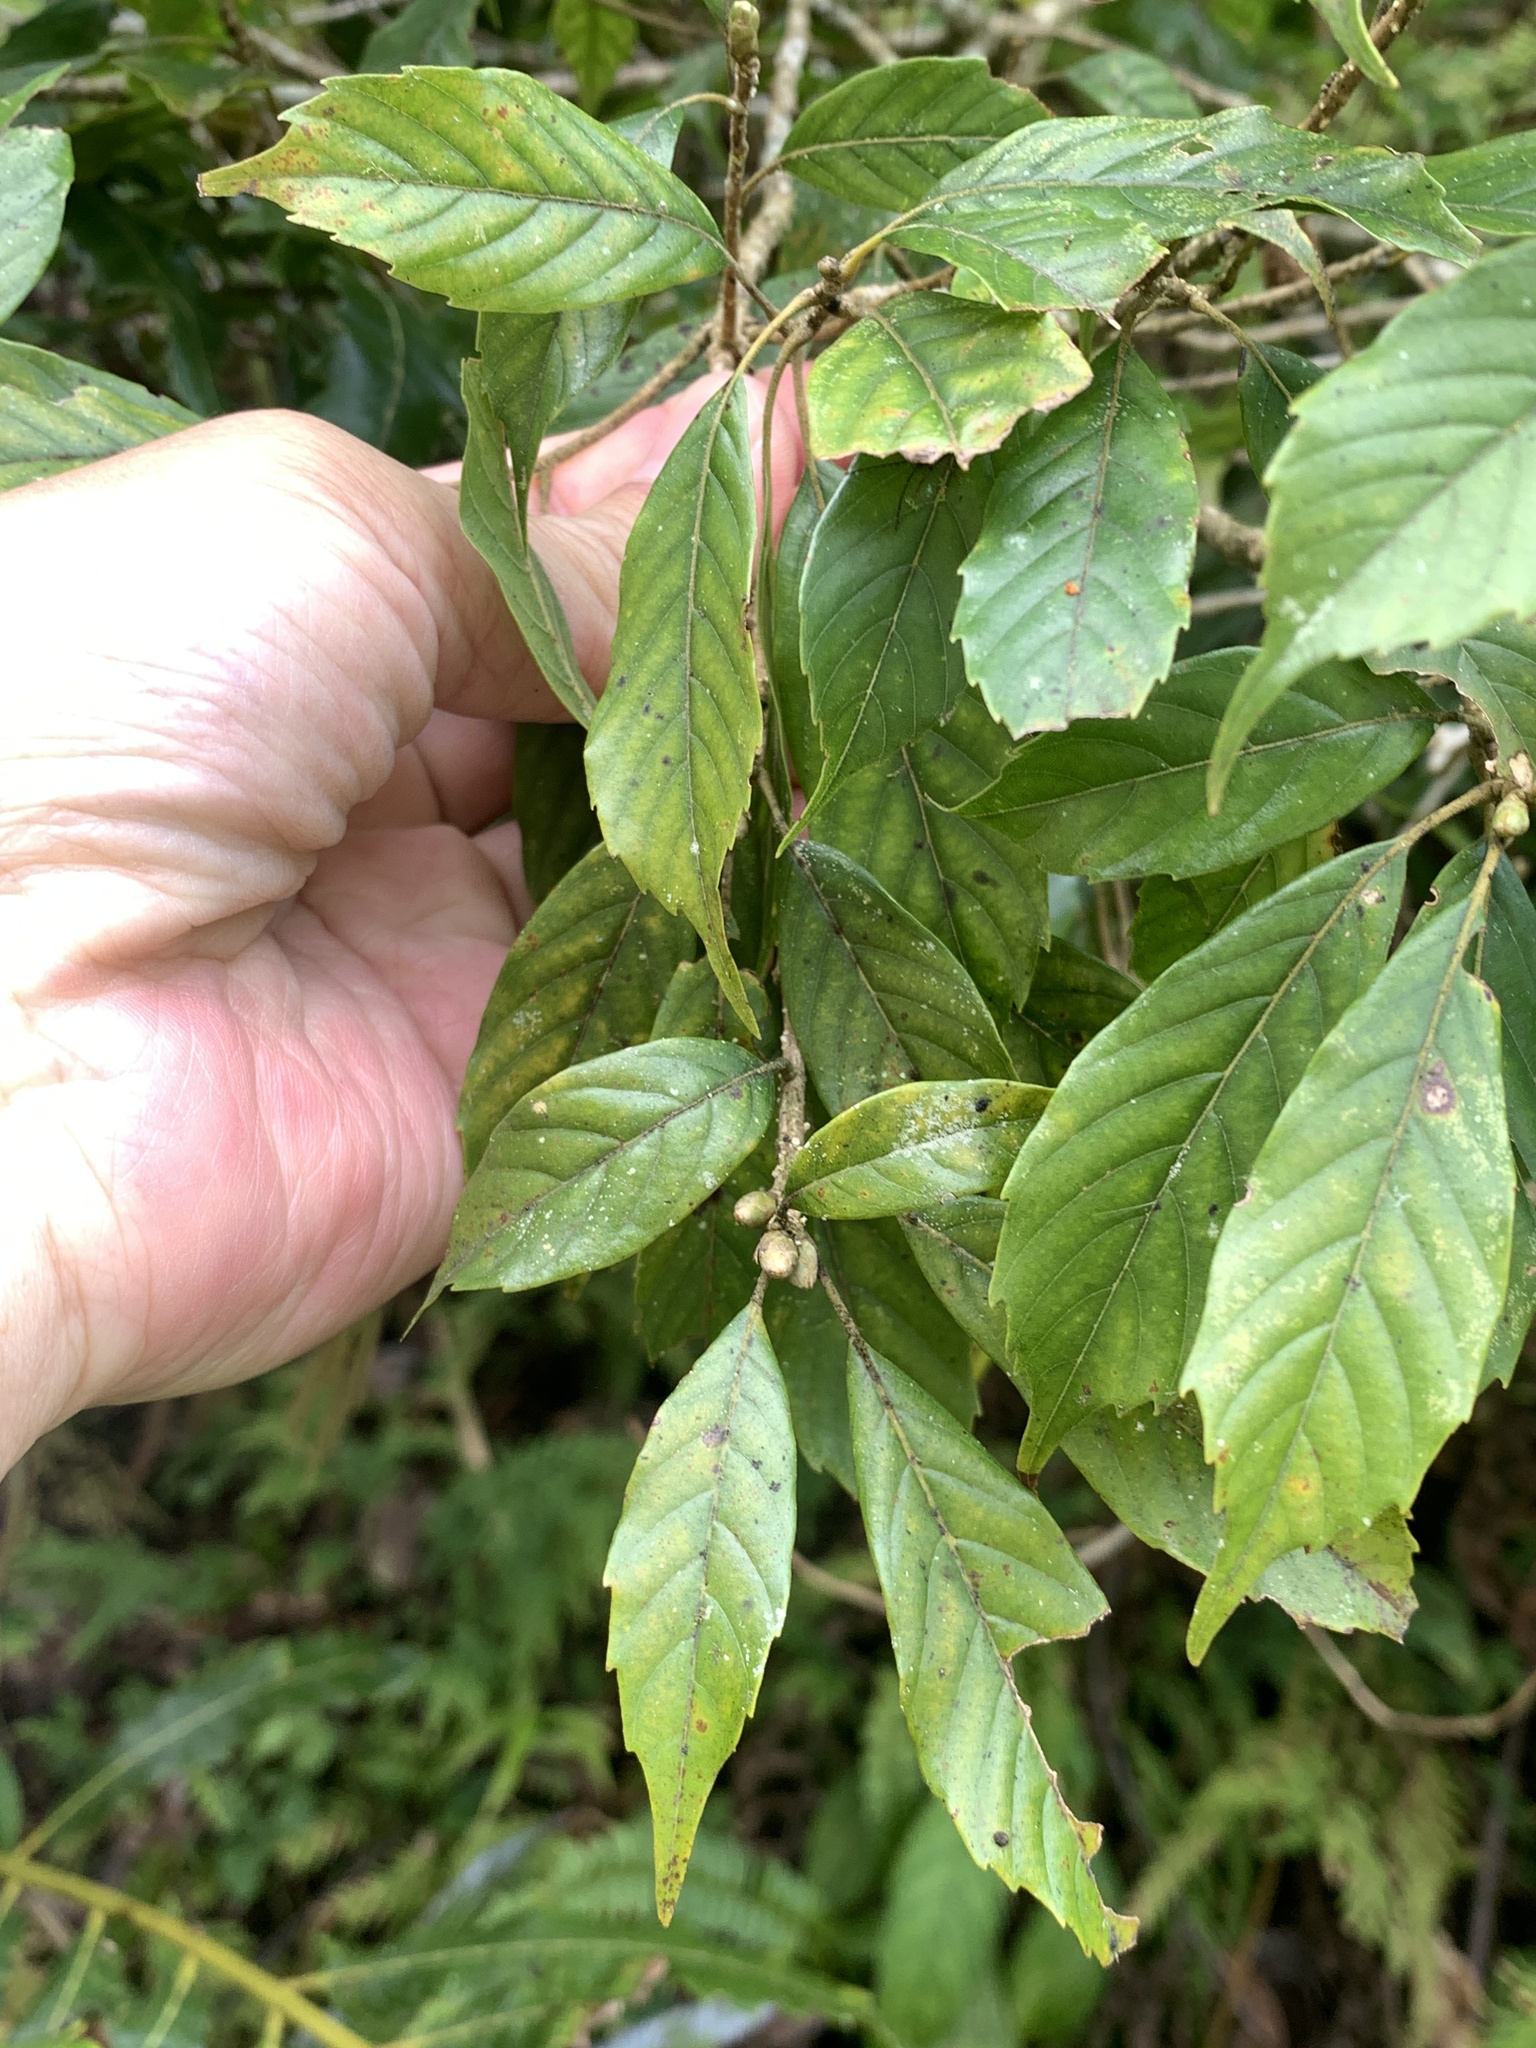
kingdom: Plantae
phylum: Tracheophyta
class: Magnoliopsida
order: Fagales
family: Fagaceae
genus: Lithocarpus
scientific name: Lithocarpus corneus
